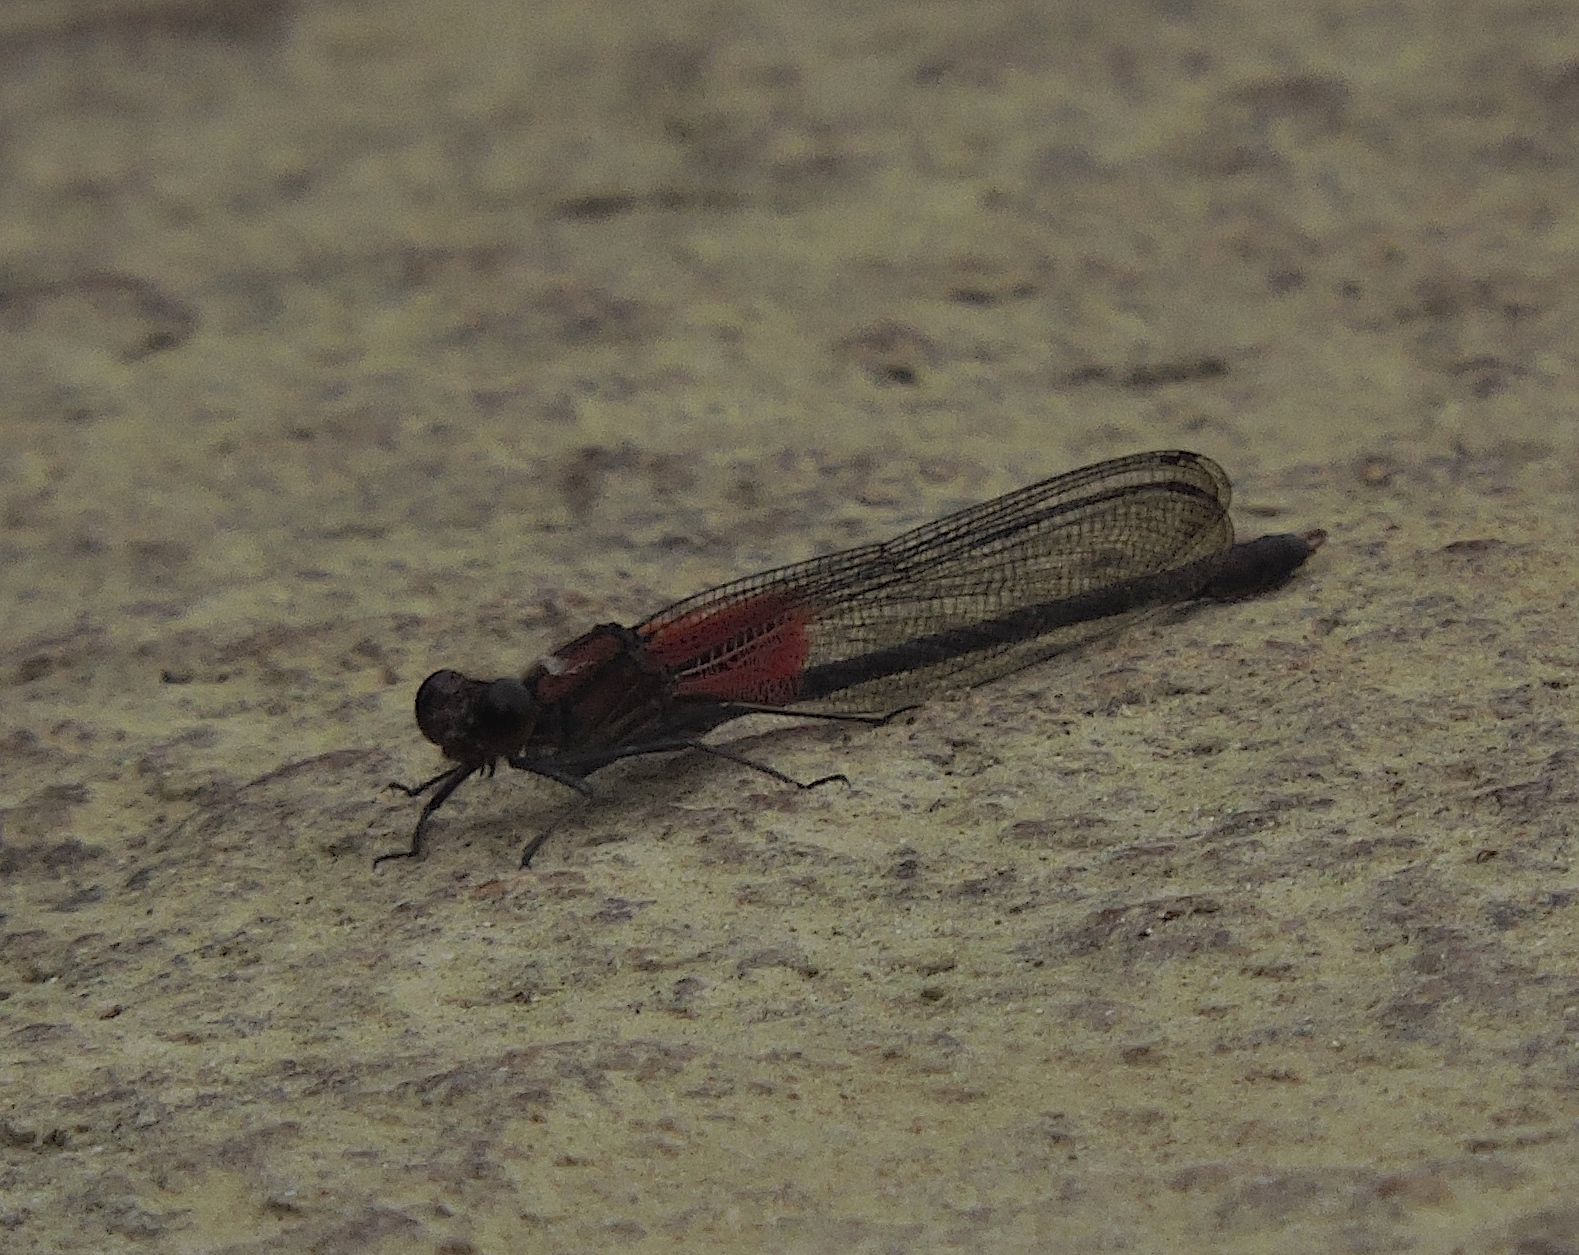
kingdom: Animalia
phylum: Arthropoda
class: Insecta
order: Odonata
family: Calopterygidae
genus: Hetaerina
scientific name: Hetaerina americana
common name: American rubyspot
